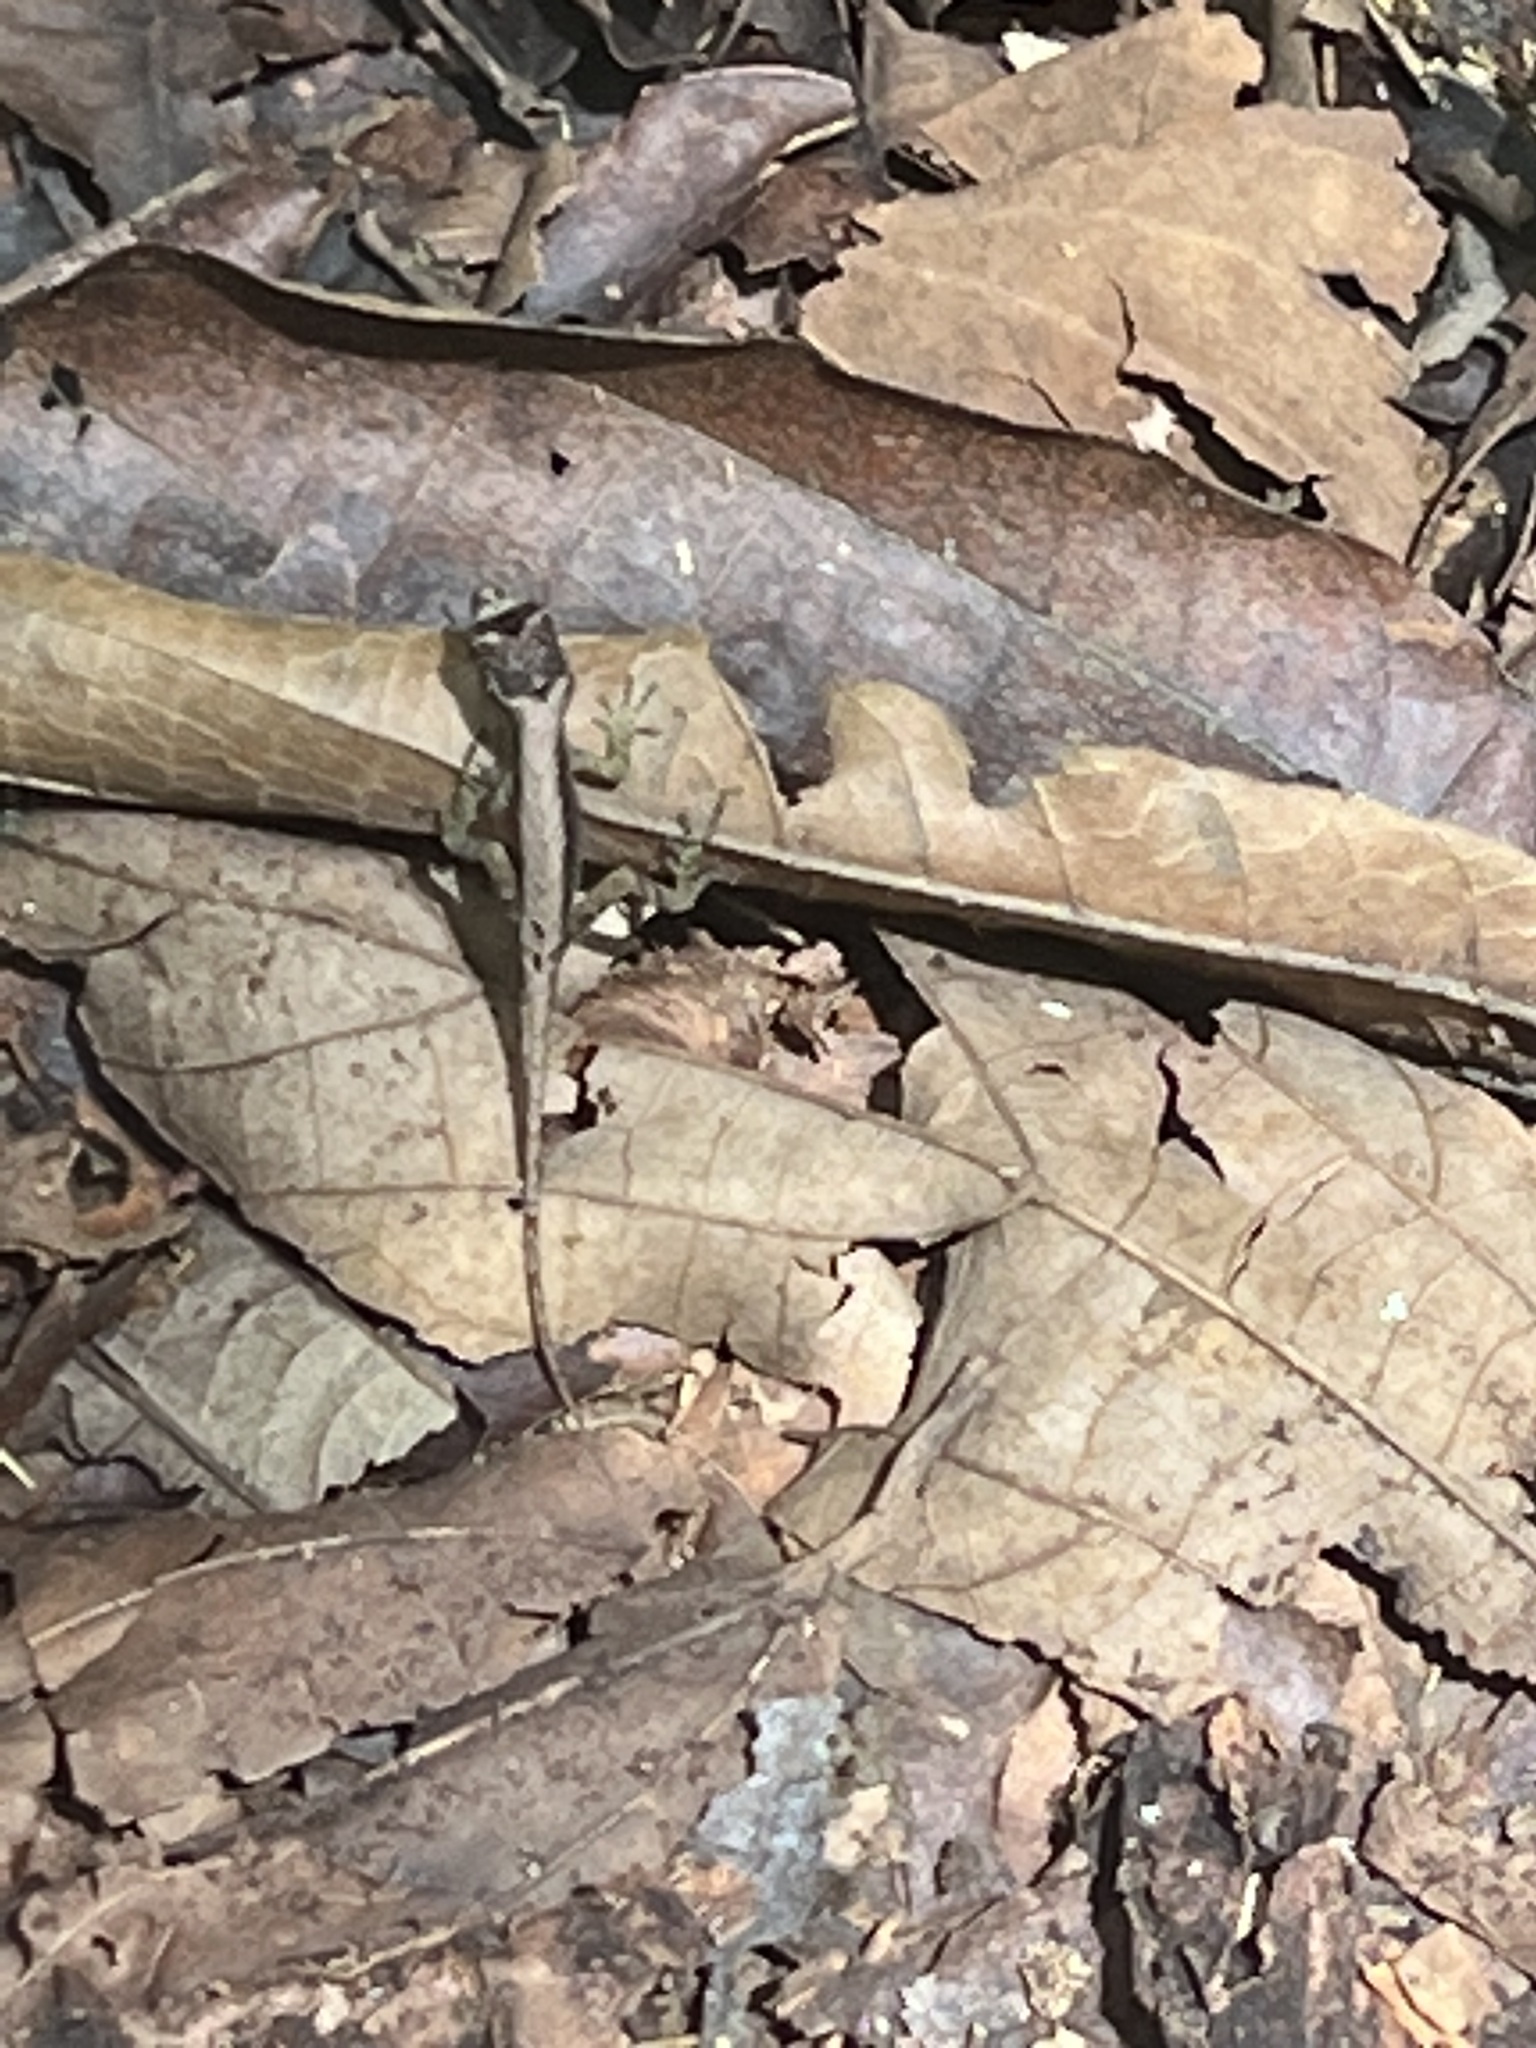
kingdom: Animalia
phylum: Chordata
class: Squamata
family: Dactyloidae
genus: Anolis
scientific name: Anolis humilis
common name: Humble anole
